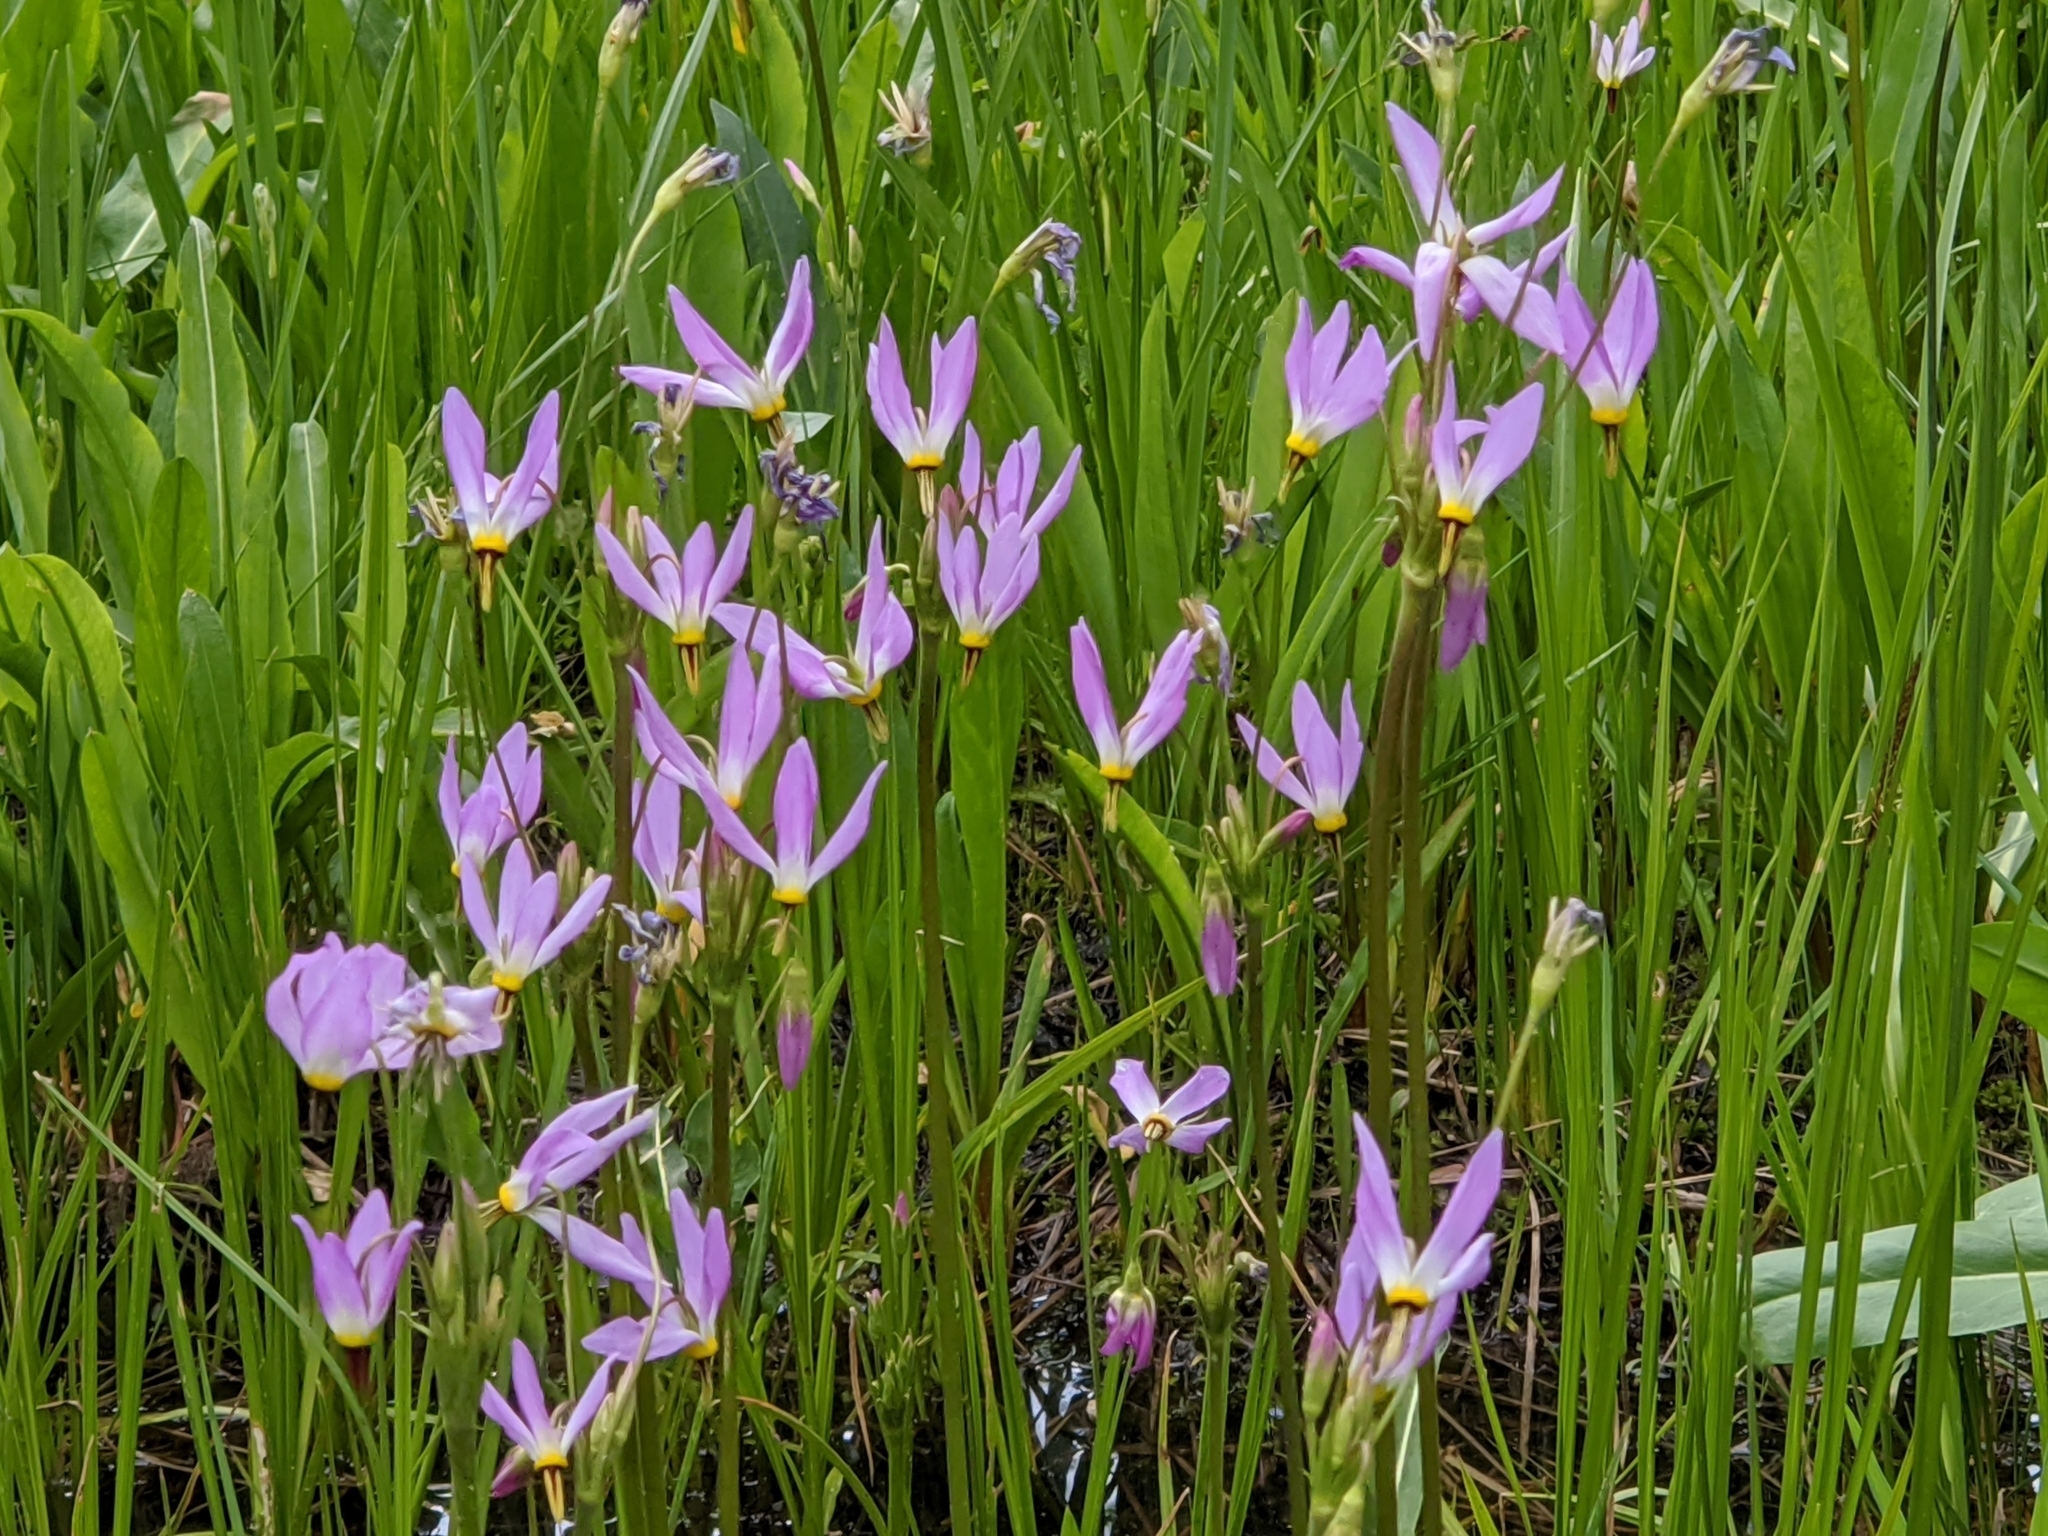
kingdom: Plantae
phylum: Tracheophyta
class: Magnoliopsida
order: Ericales
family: Primulaceae
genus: Dodecatheon
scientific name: Dodecatheon alpinum
